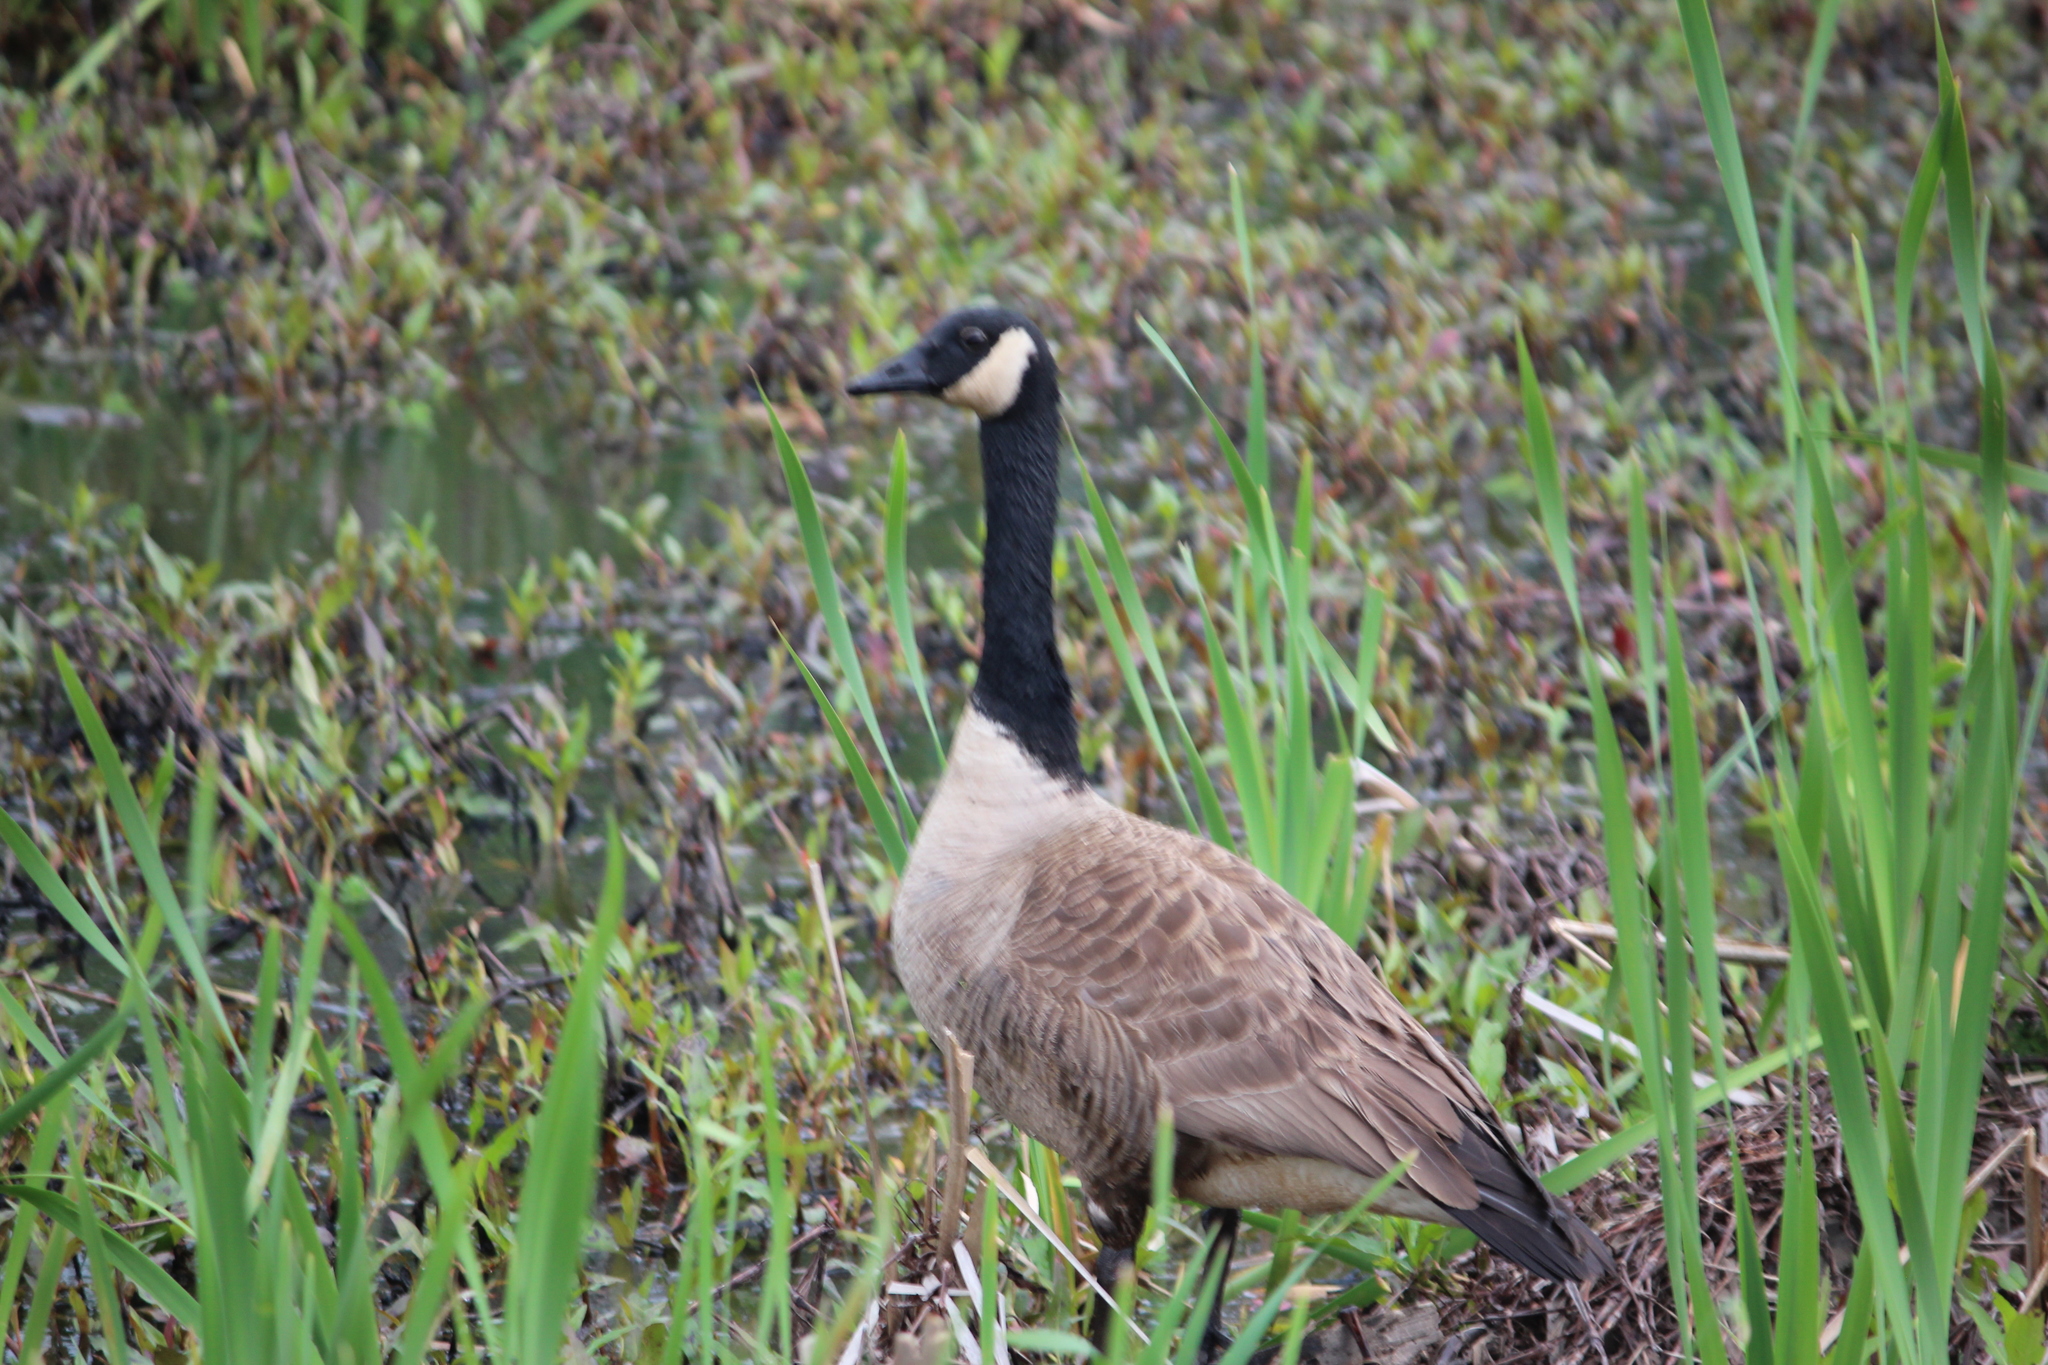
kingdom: Animalia
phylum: Chordata
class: Aves
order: Anseriformes
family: Anatidae
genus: Branta
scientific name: Branta canadensis
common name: Canada goose
